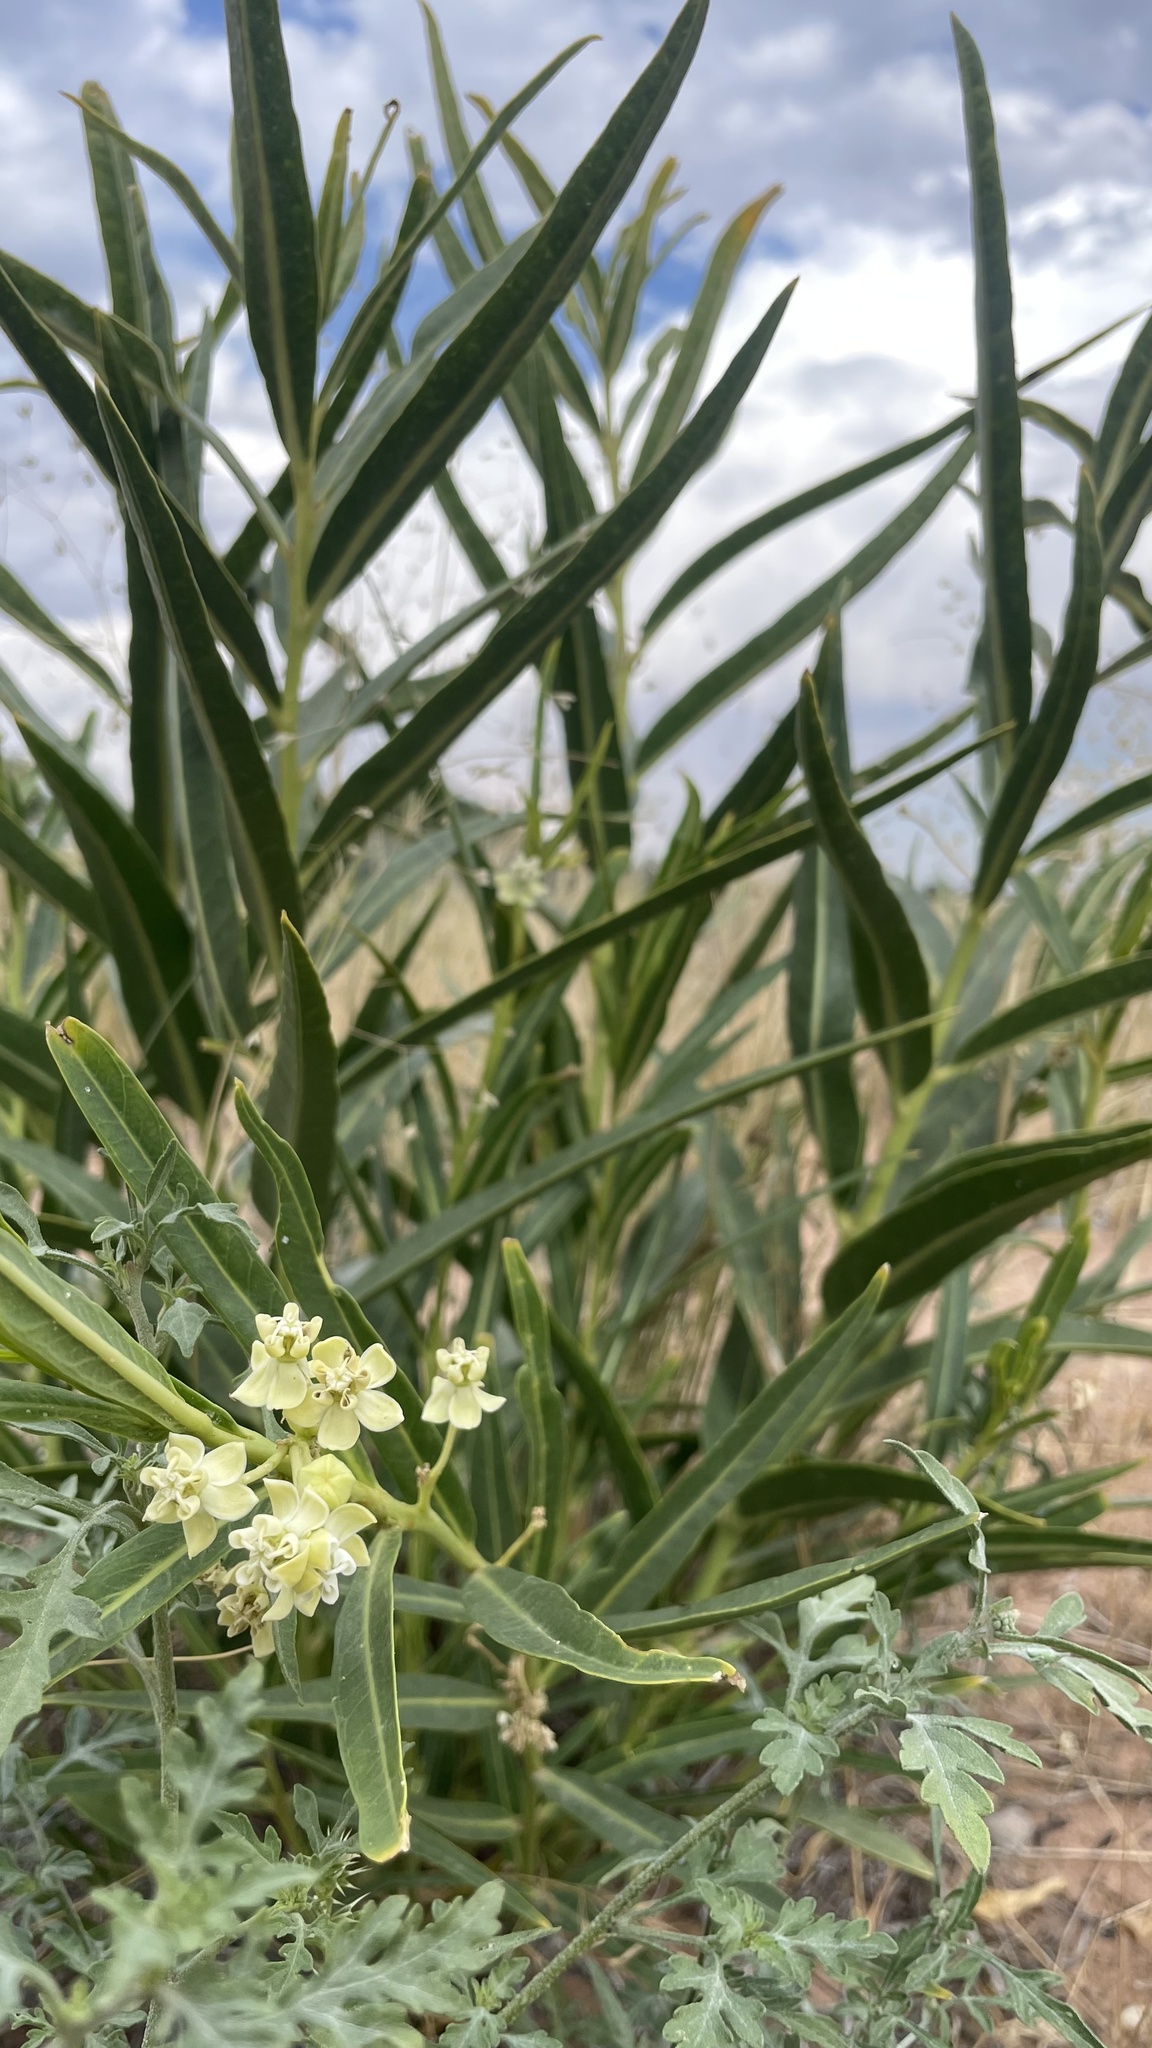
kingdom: Plantae
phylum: Tracheophyta
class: Magnoliopsida
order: Gentianales
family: Apocynaceae
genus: Asclepias
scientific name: Asclepias labriformis
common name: Labriformis milkweed
